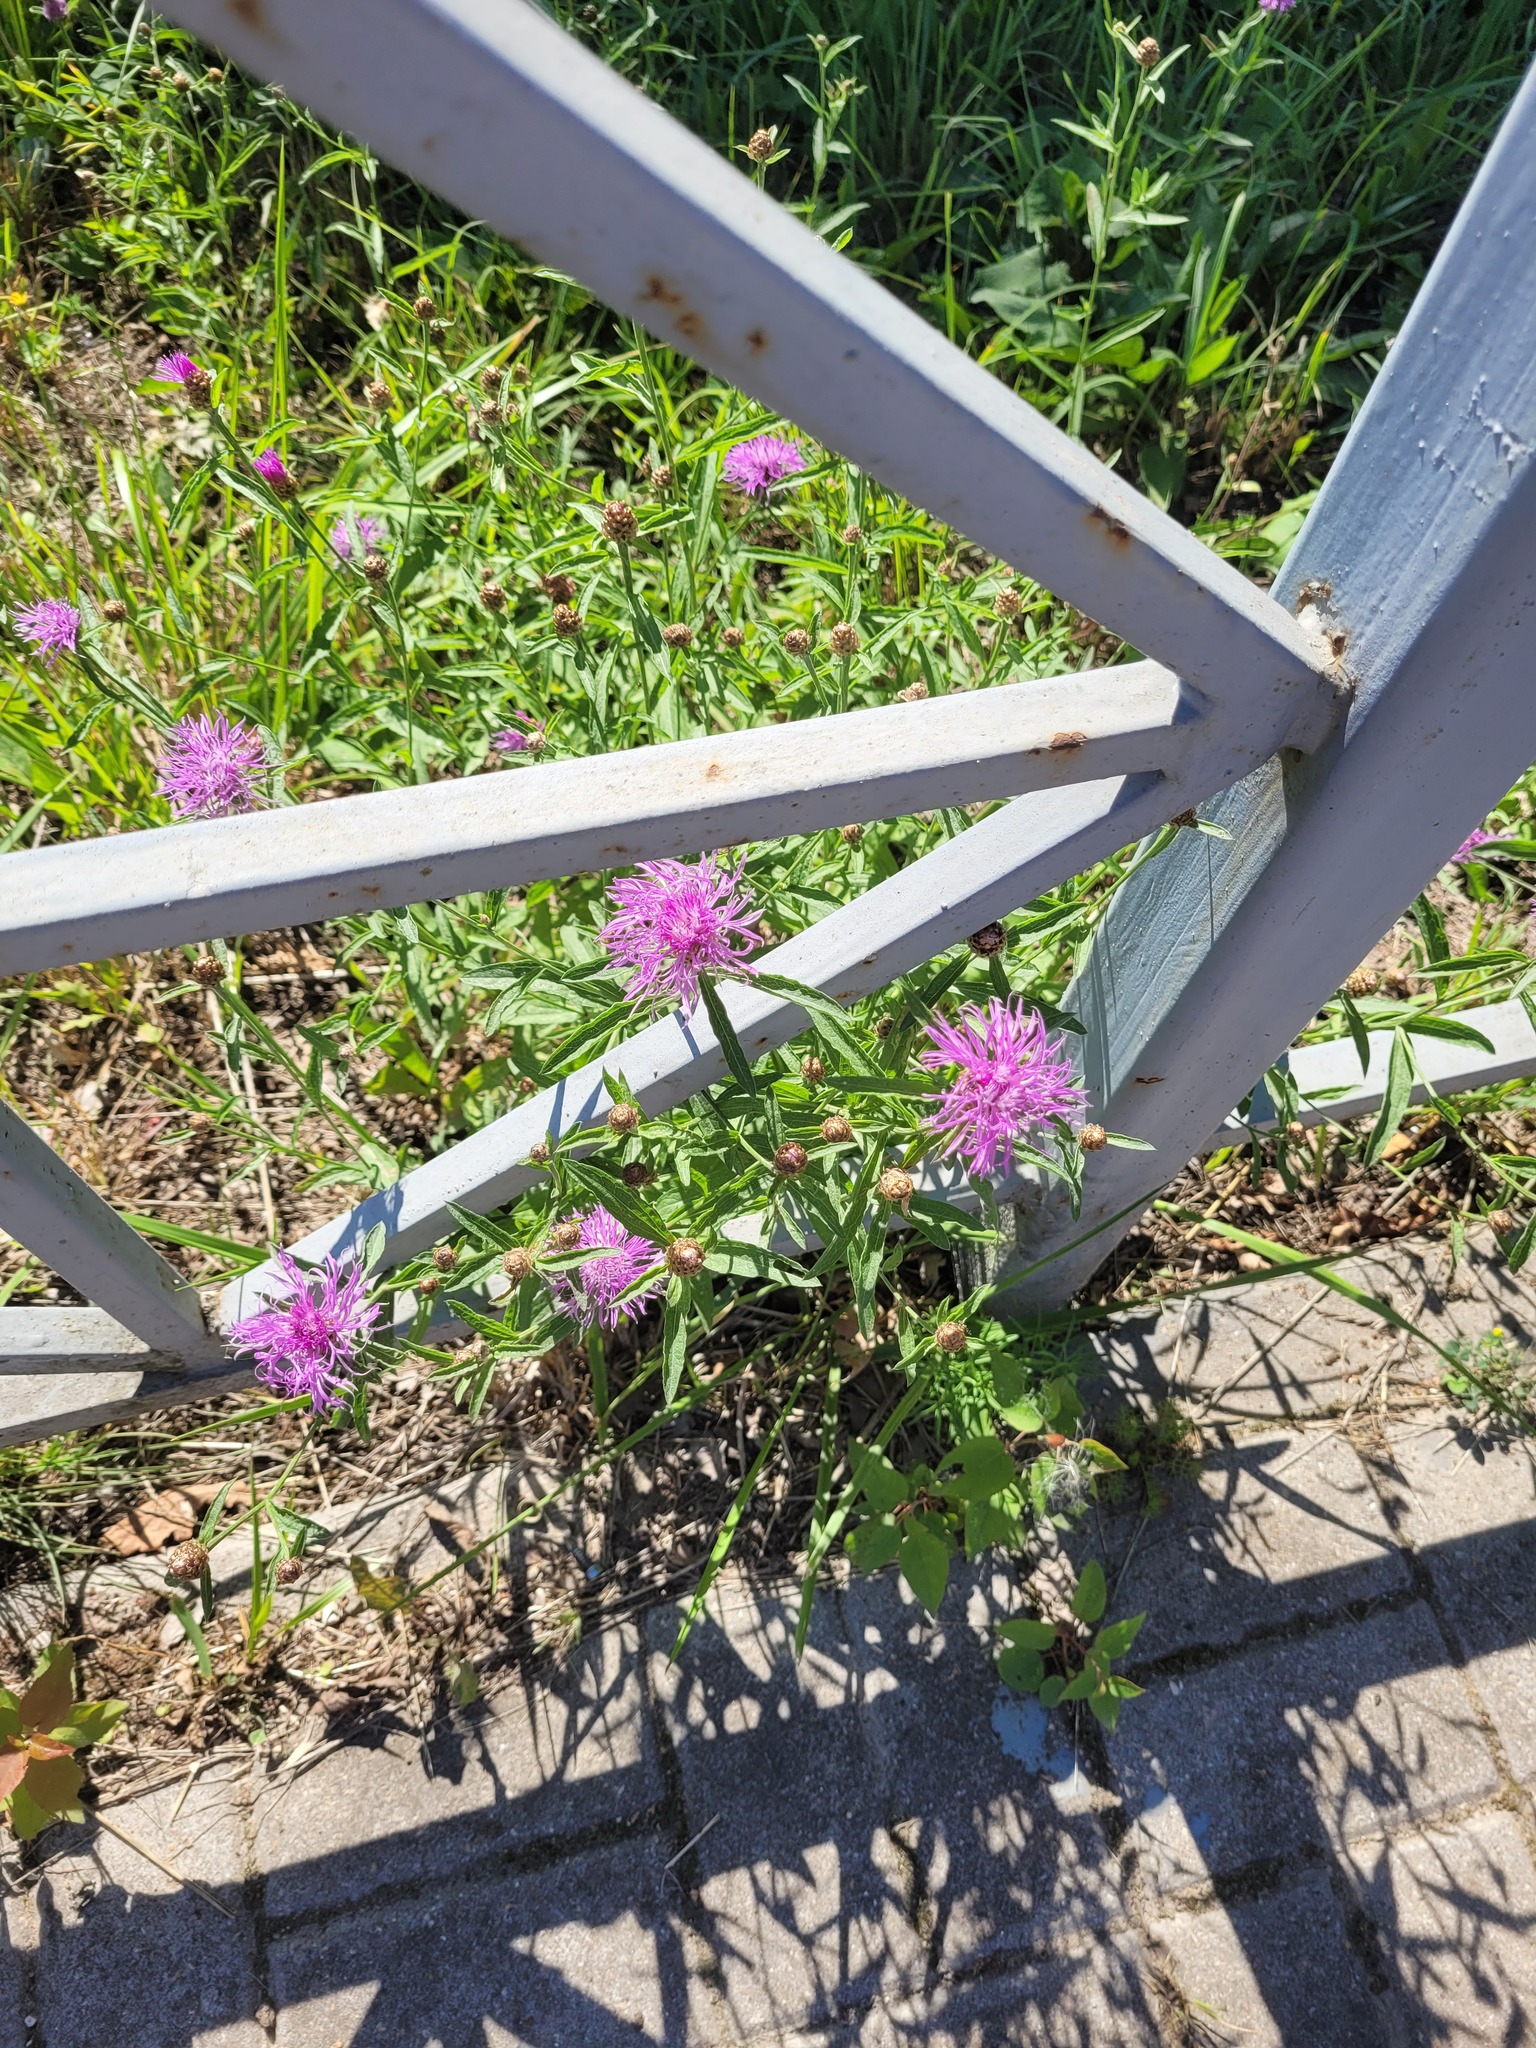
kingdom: Plantae
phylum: Tracheophyta
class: Magnoliopsida
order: Asterales
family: Asteraceae
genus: Centaurea
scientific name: Centaurea jacea
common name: Brown knapweed
